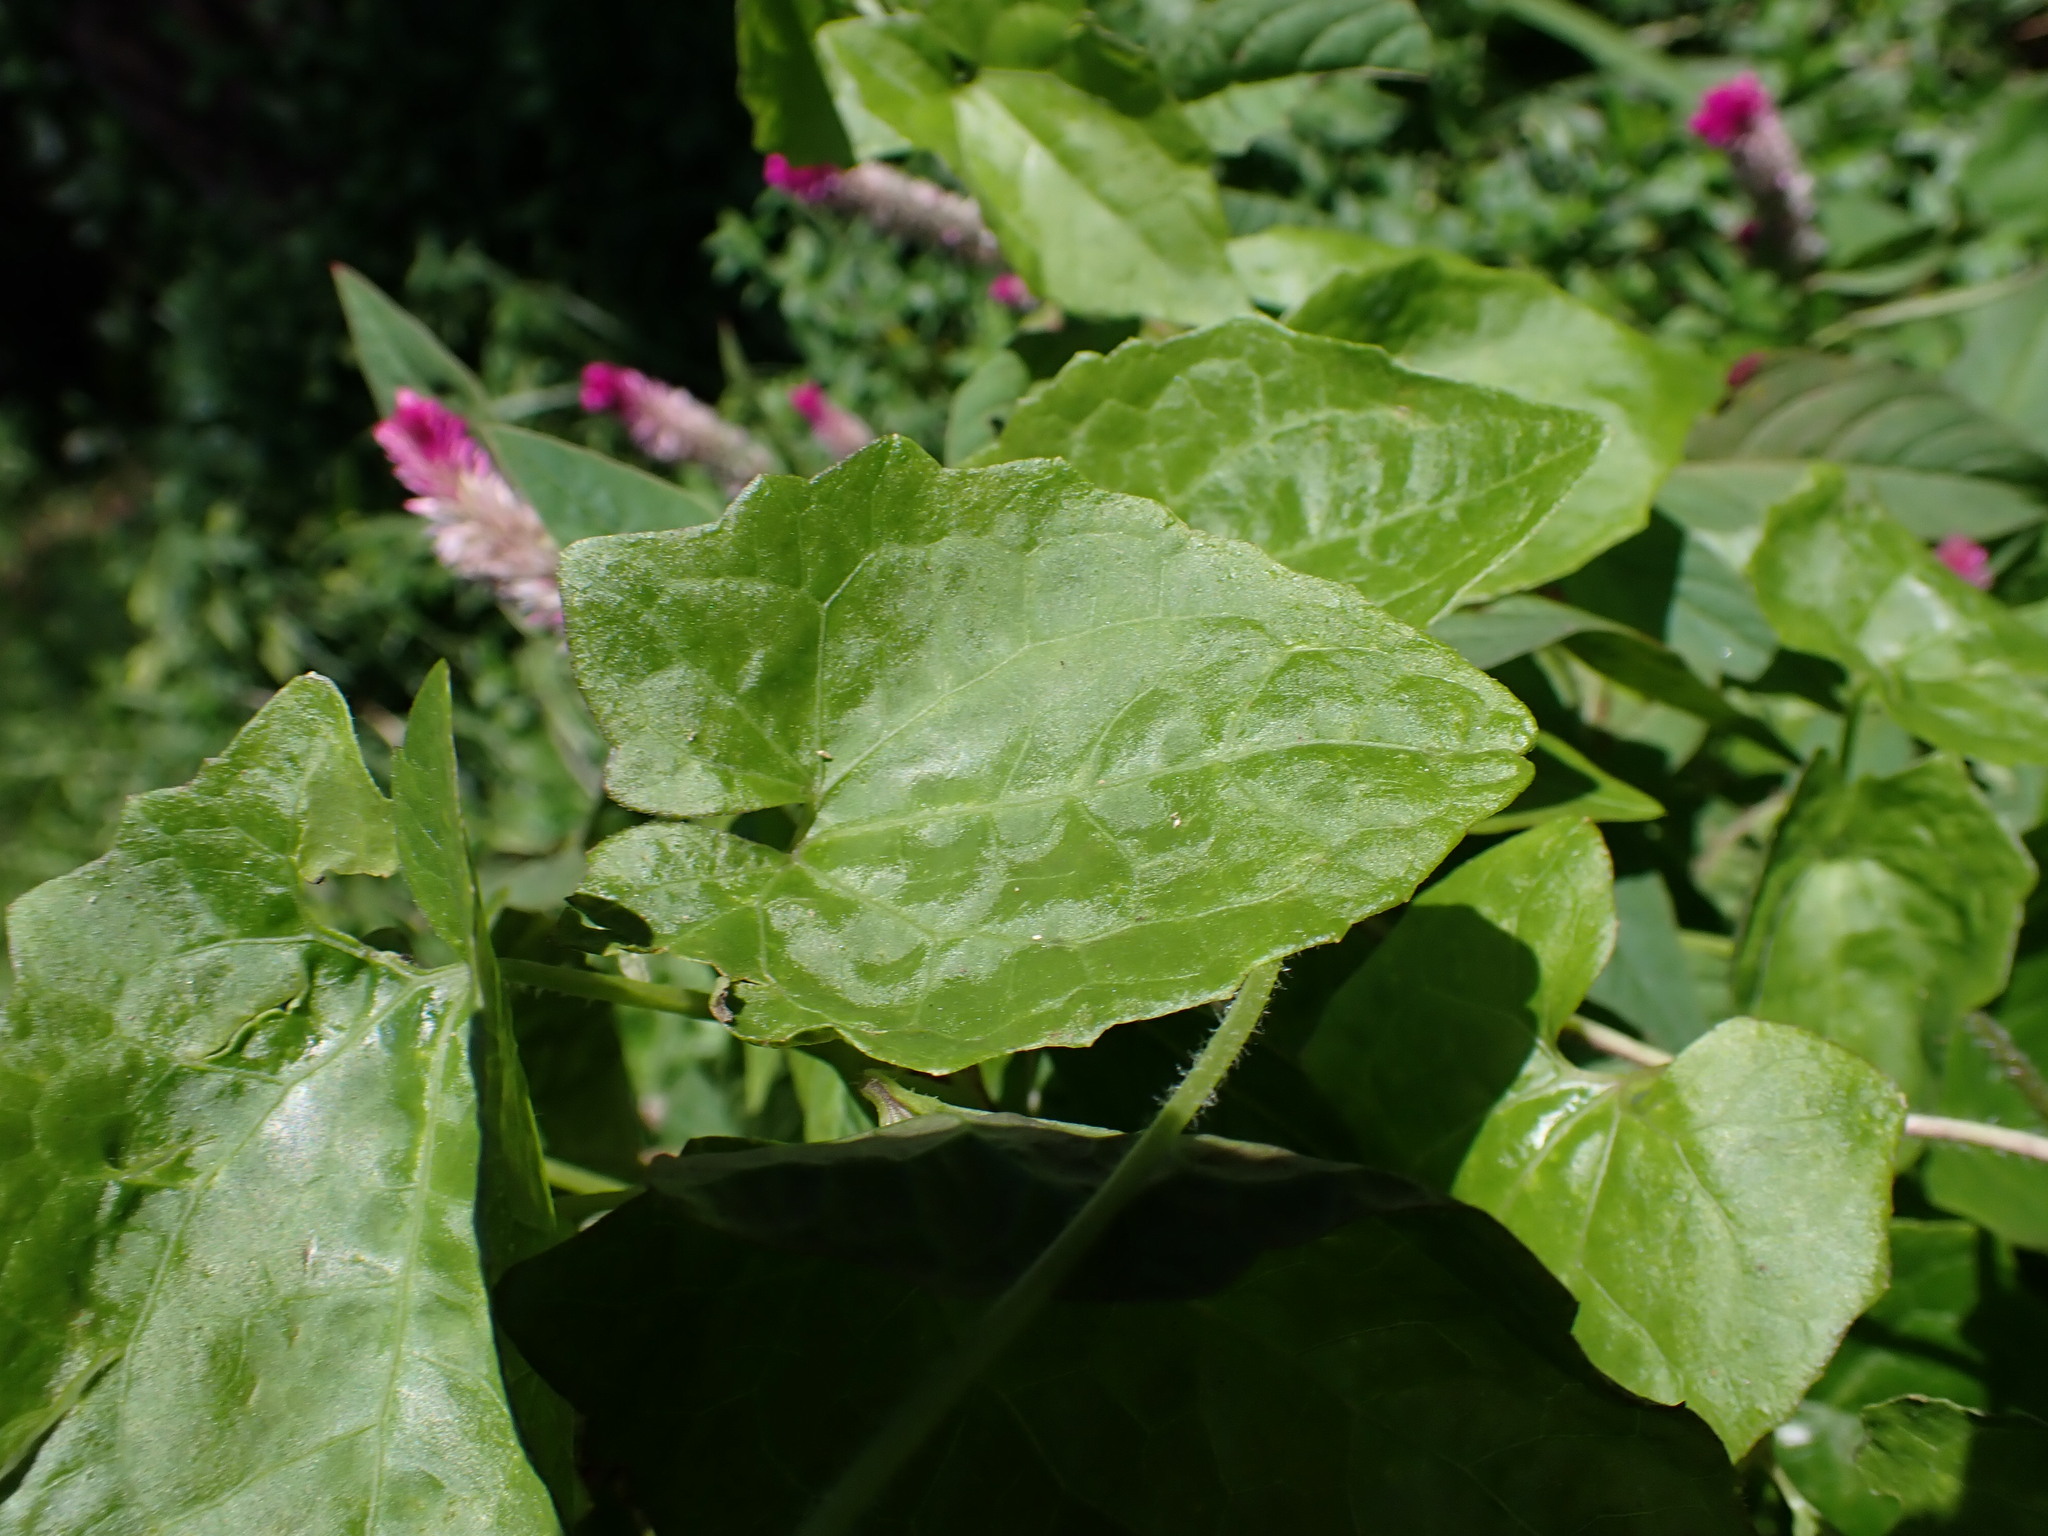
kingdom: Plantae
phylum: Tracheophyta
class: Magnoliopsida
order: Caryophyllales
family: Amaranthaceae
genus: Celosia
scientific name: Celosia argentea
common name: Feather cockscomb
